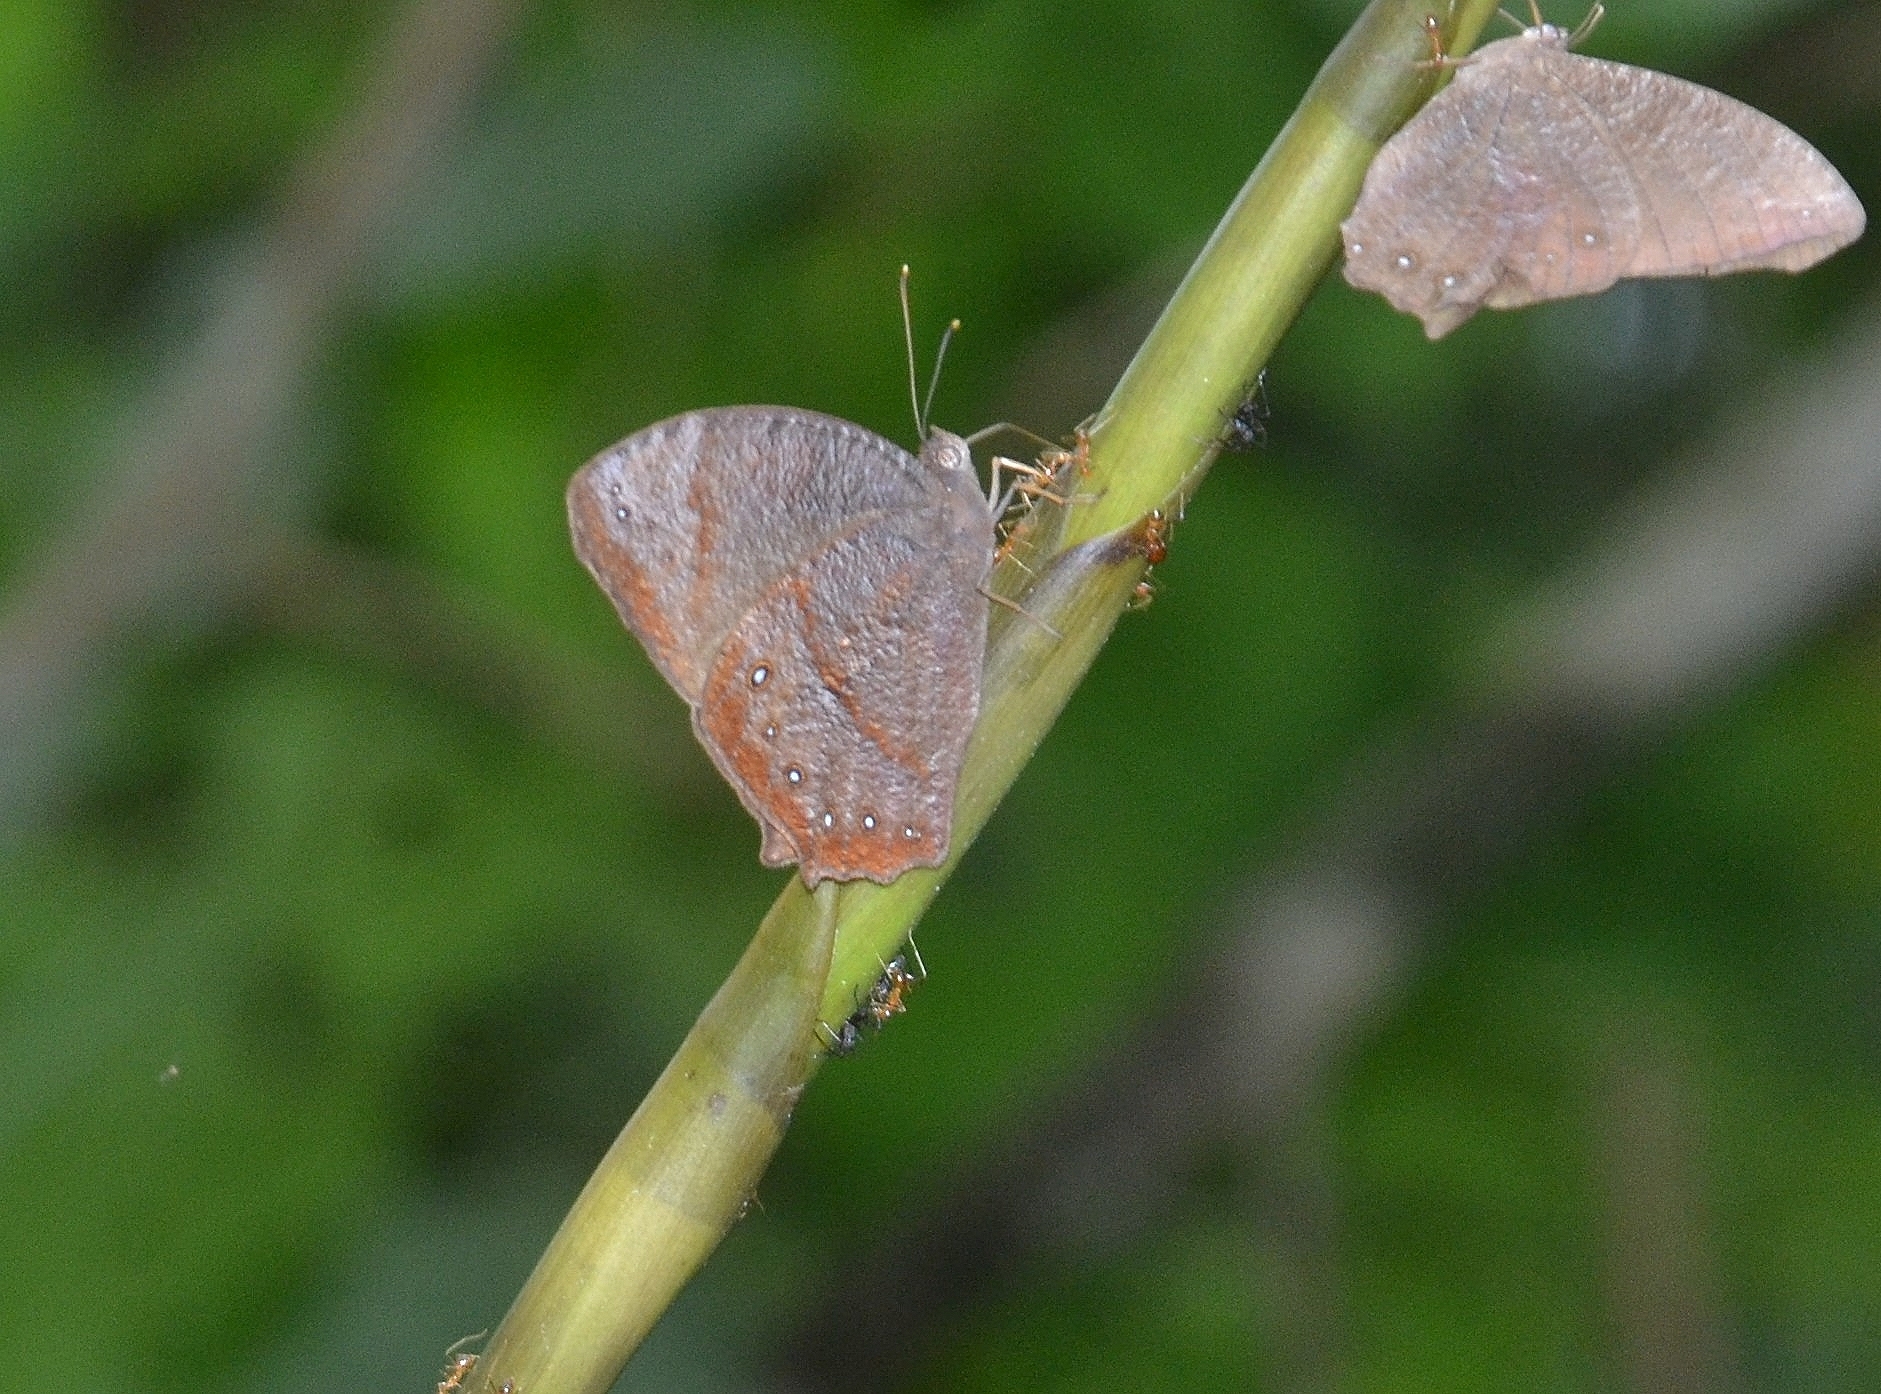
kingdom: Animalia
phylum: Arthropoda
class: Insecta
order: Lepidoptera
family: Nymphalidae
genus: Melanitis
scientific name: Melanitis phedima
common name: Dark evening brown
